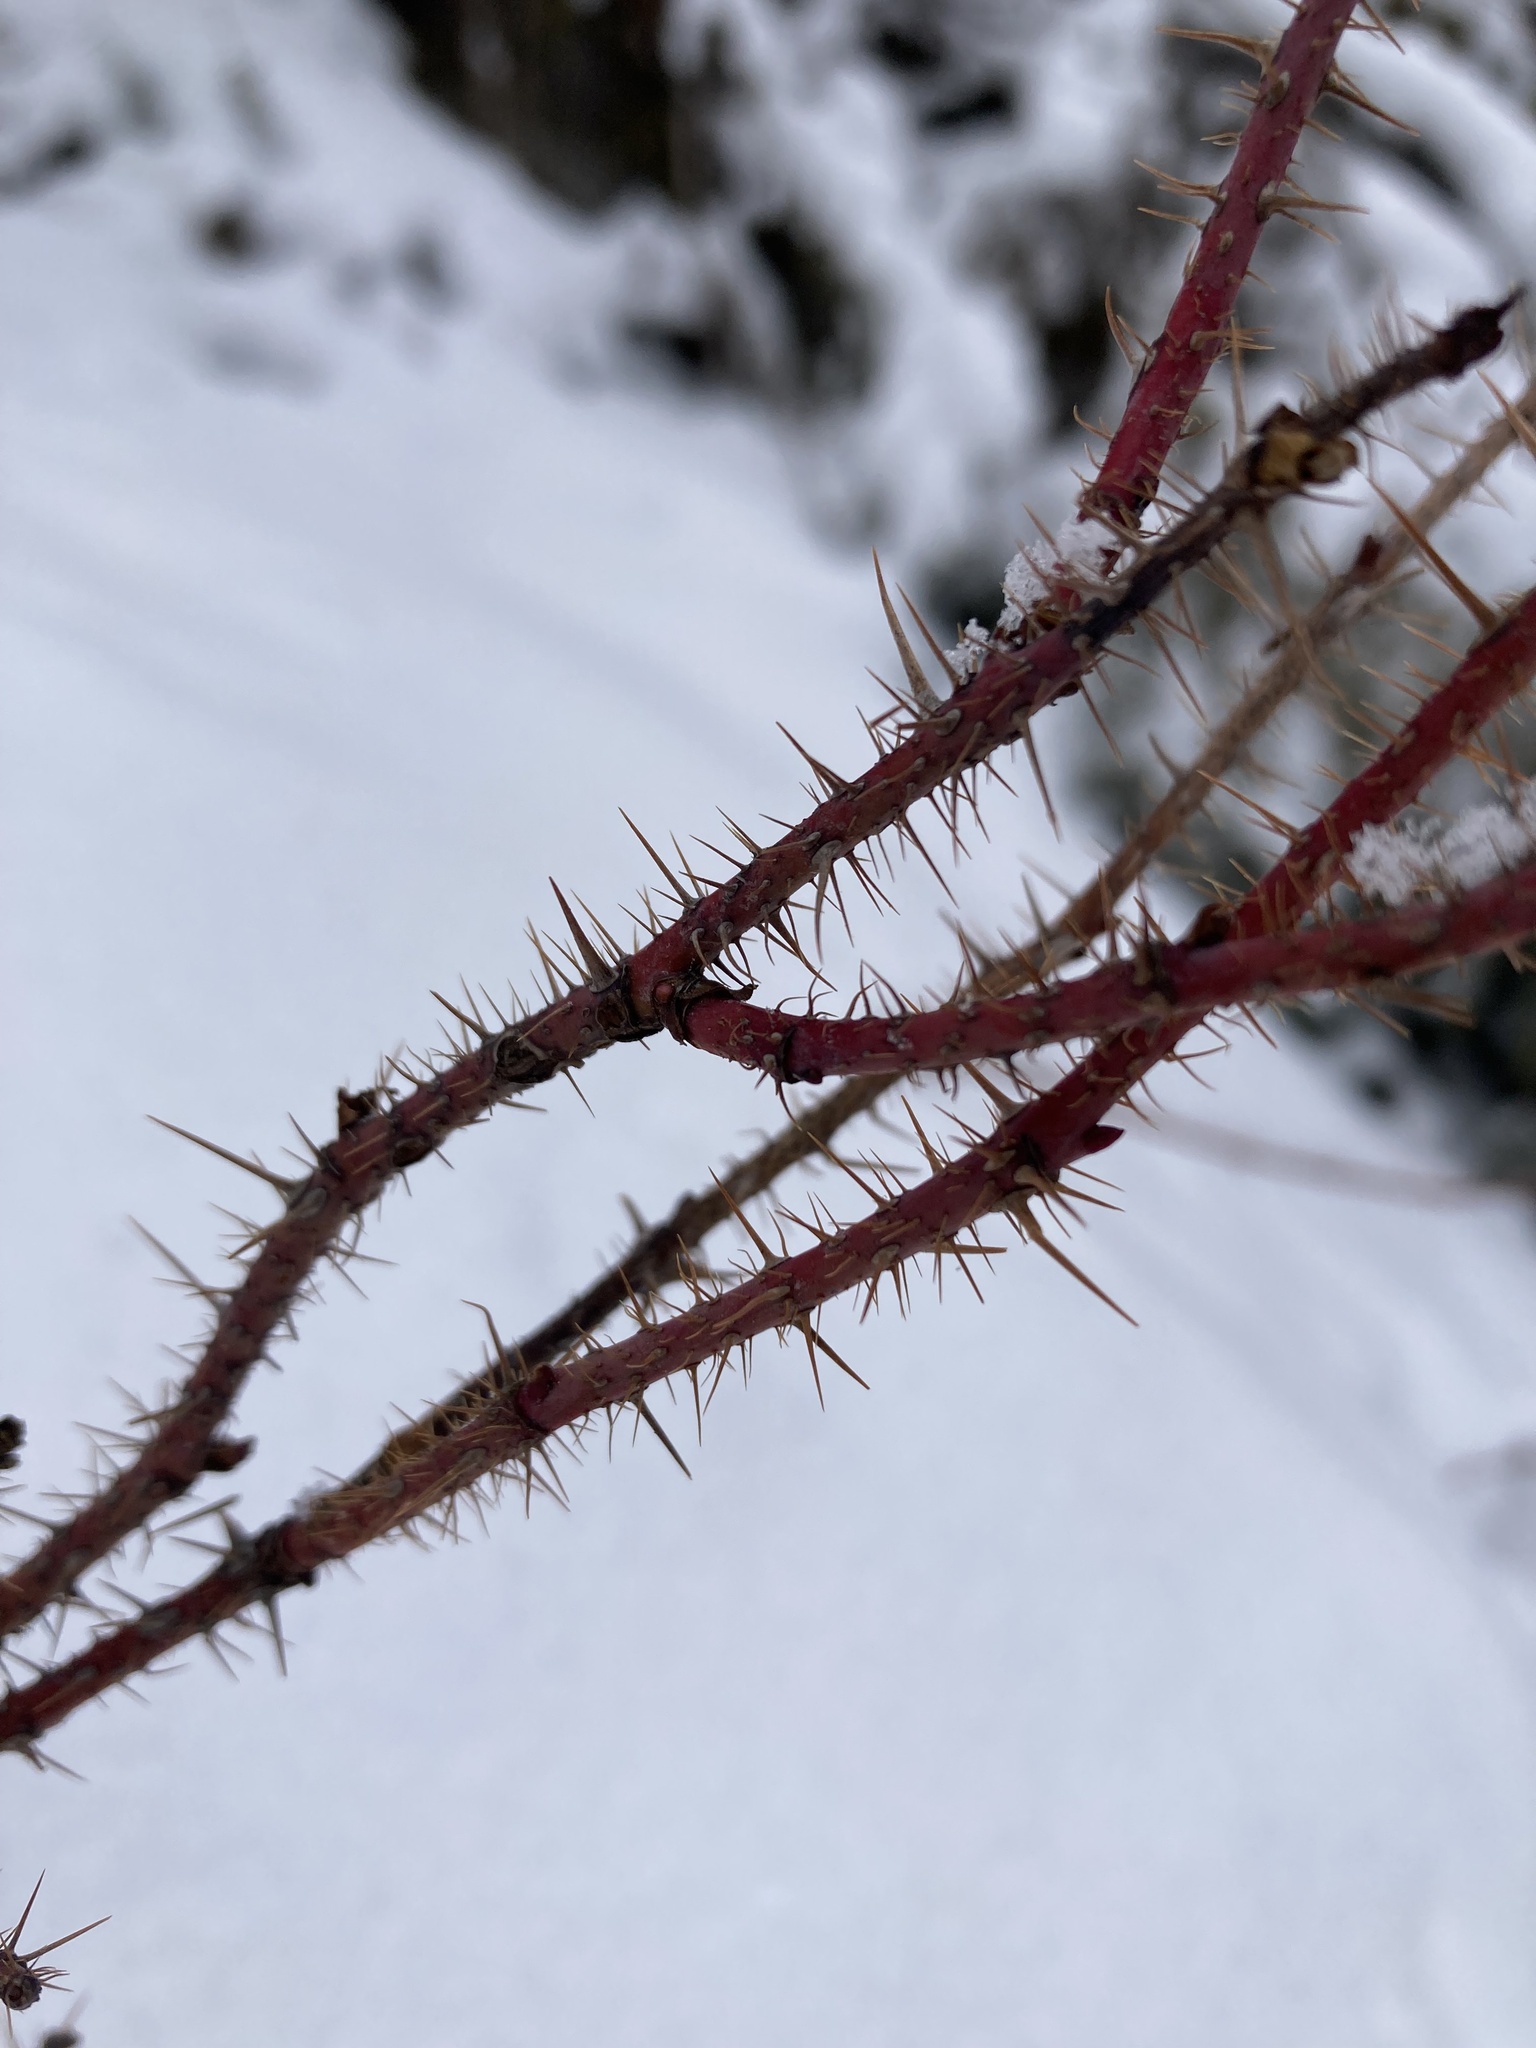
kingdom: Plantae
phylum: Tracheophyta
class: Magnoliopsida
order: Rosales
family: Rosaceae
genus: Rosa
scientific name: Rosa acicularis
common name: Prickly rose
